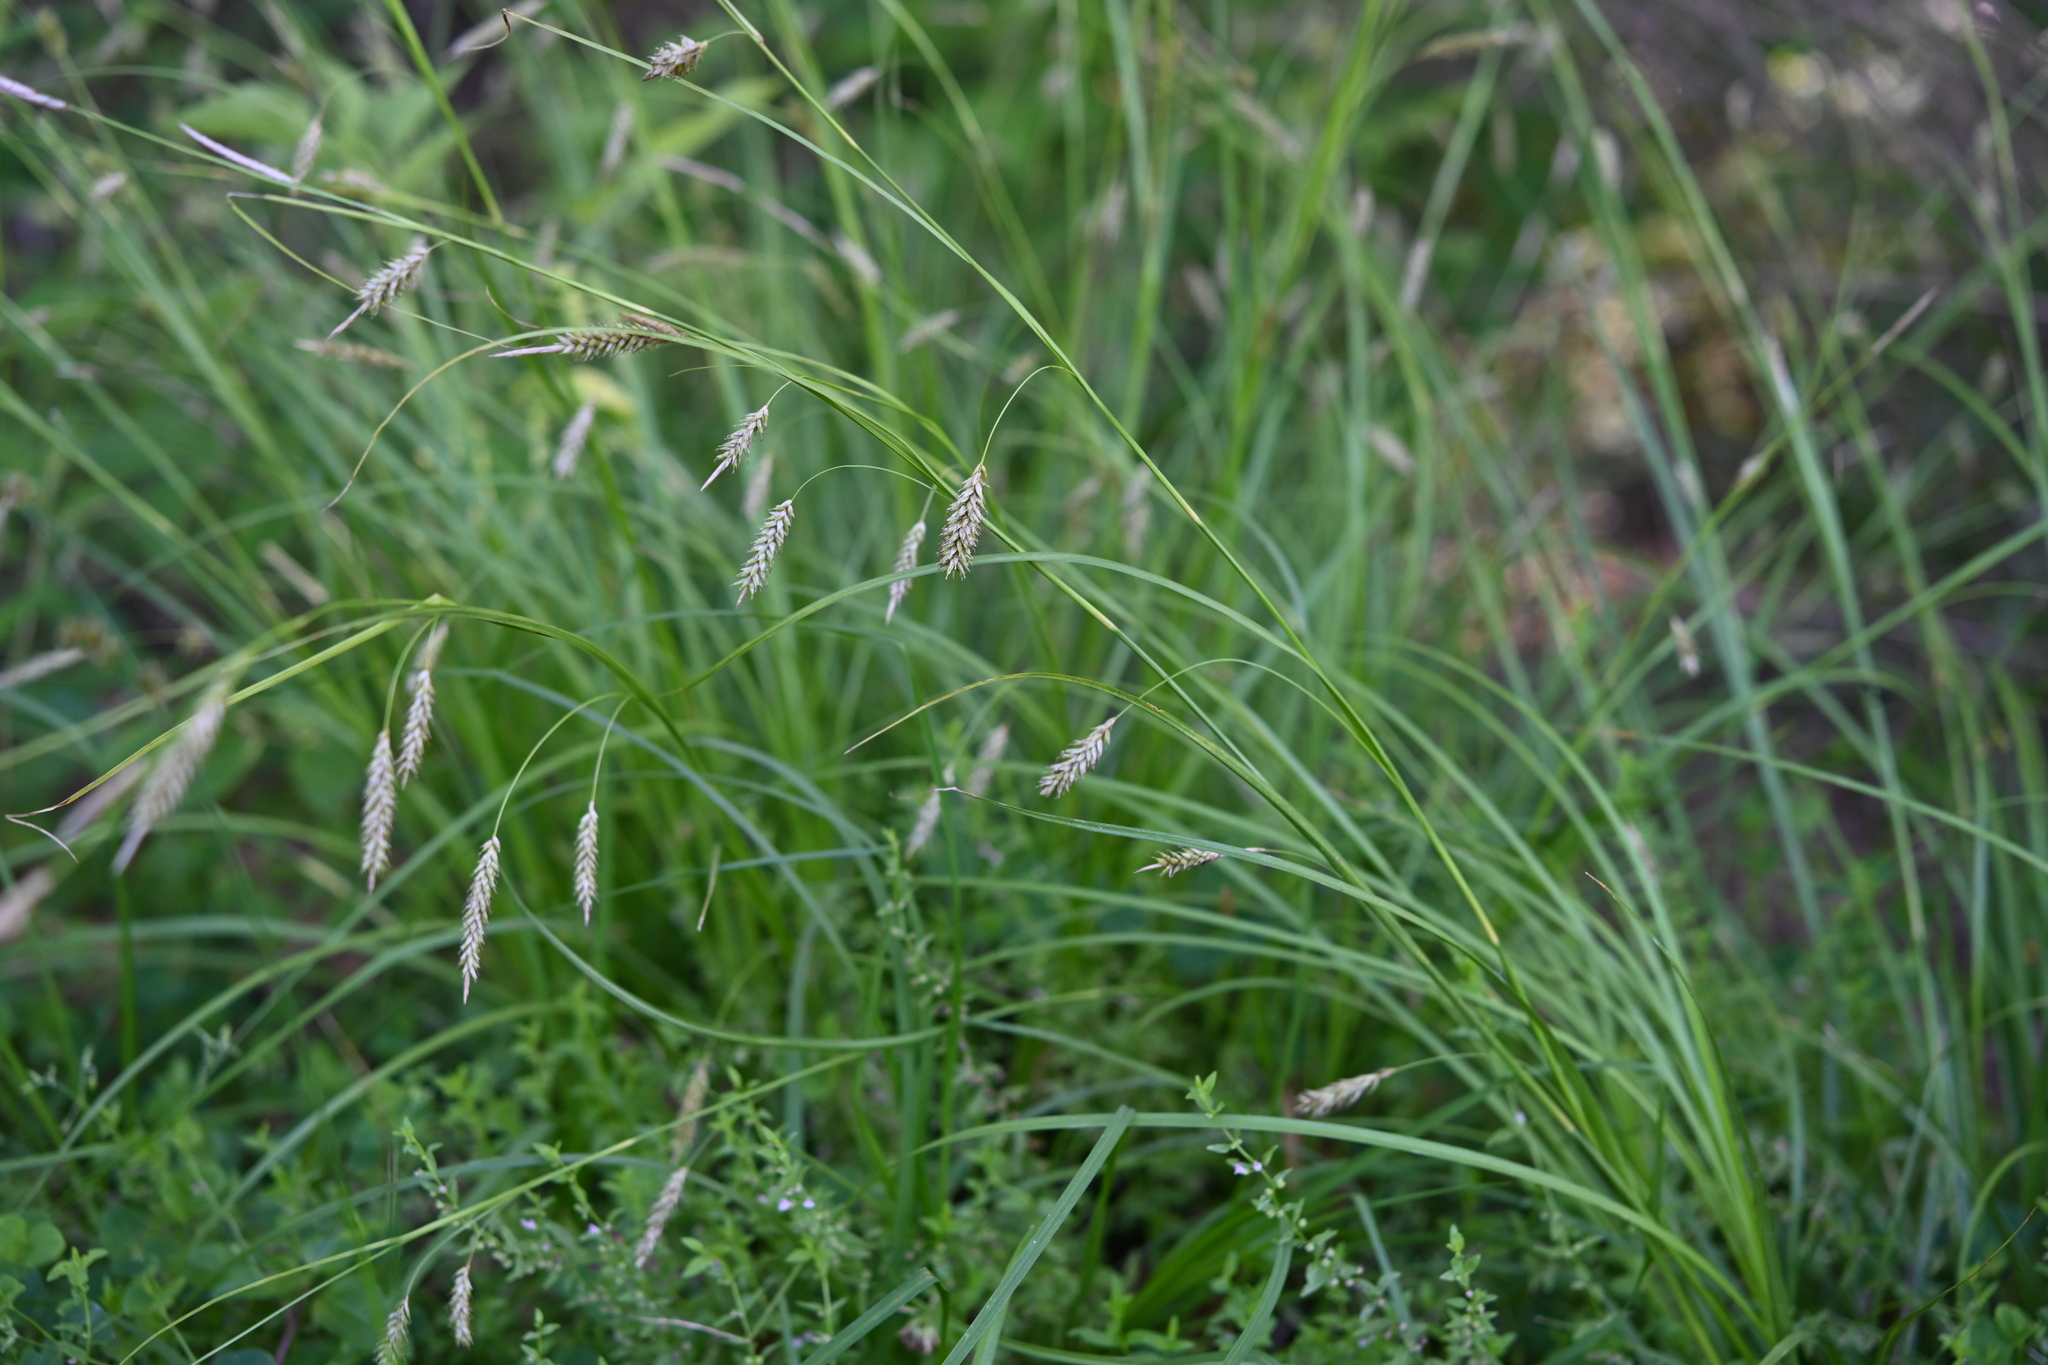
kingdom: Plantae
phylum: Tracheophyta
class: Liliopsida
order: Poales
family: Cyperaceae
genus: Carex
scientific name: Carex cherokeensis
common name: Cherokee sedge
